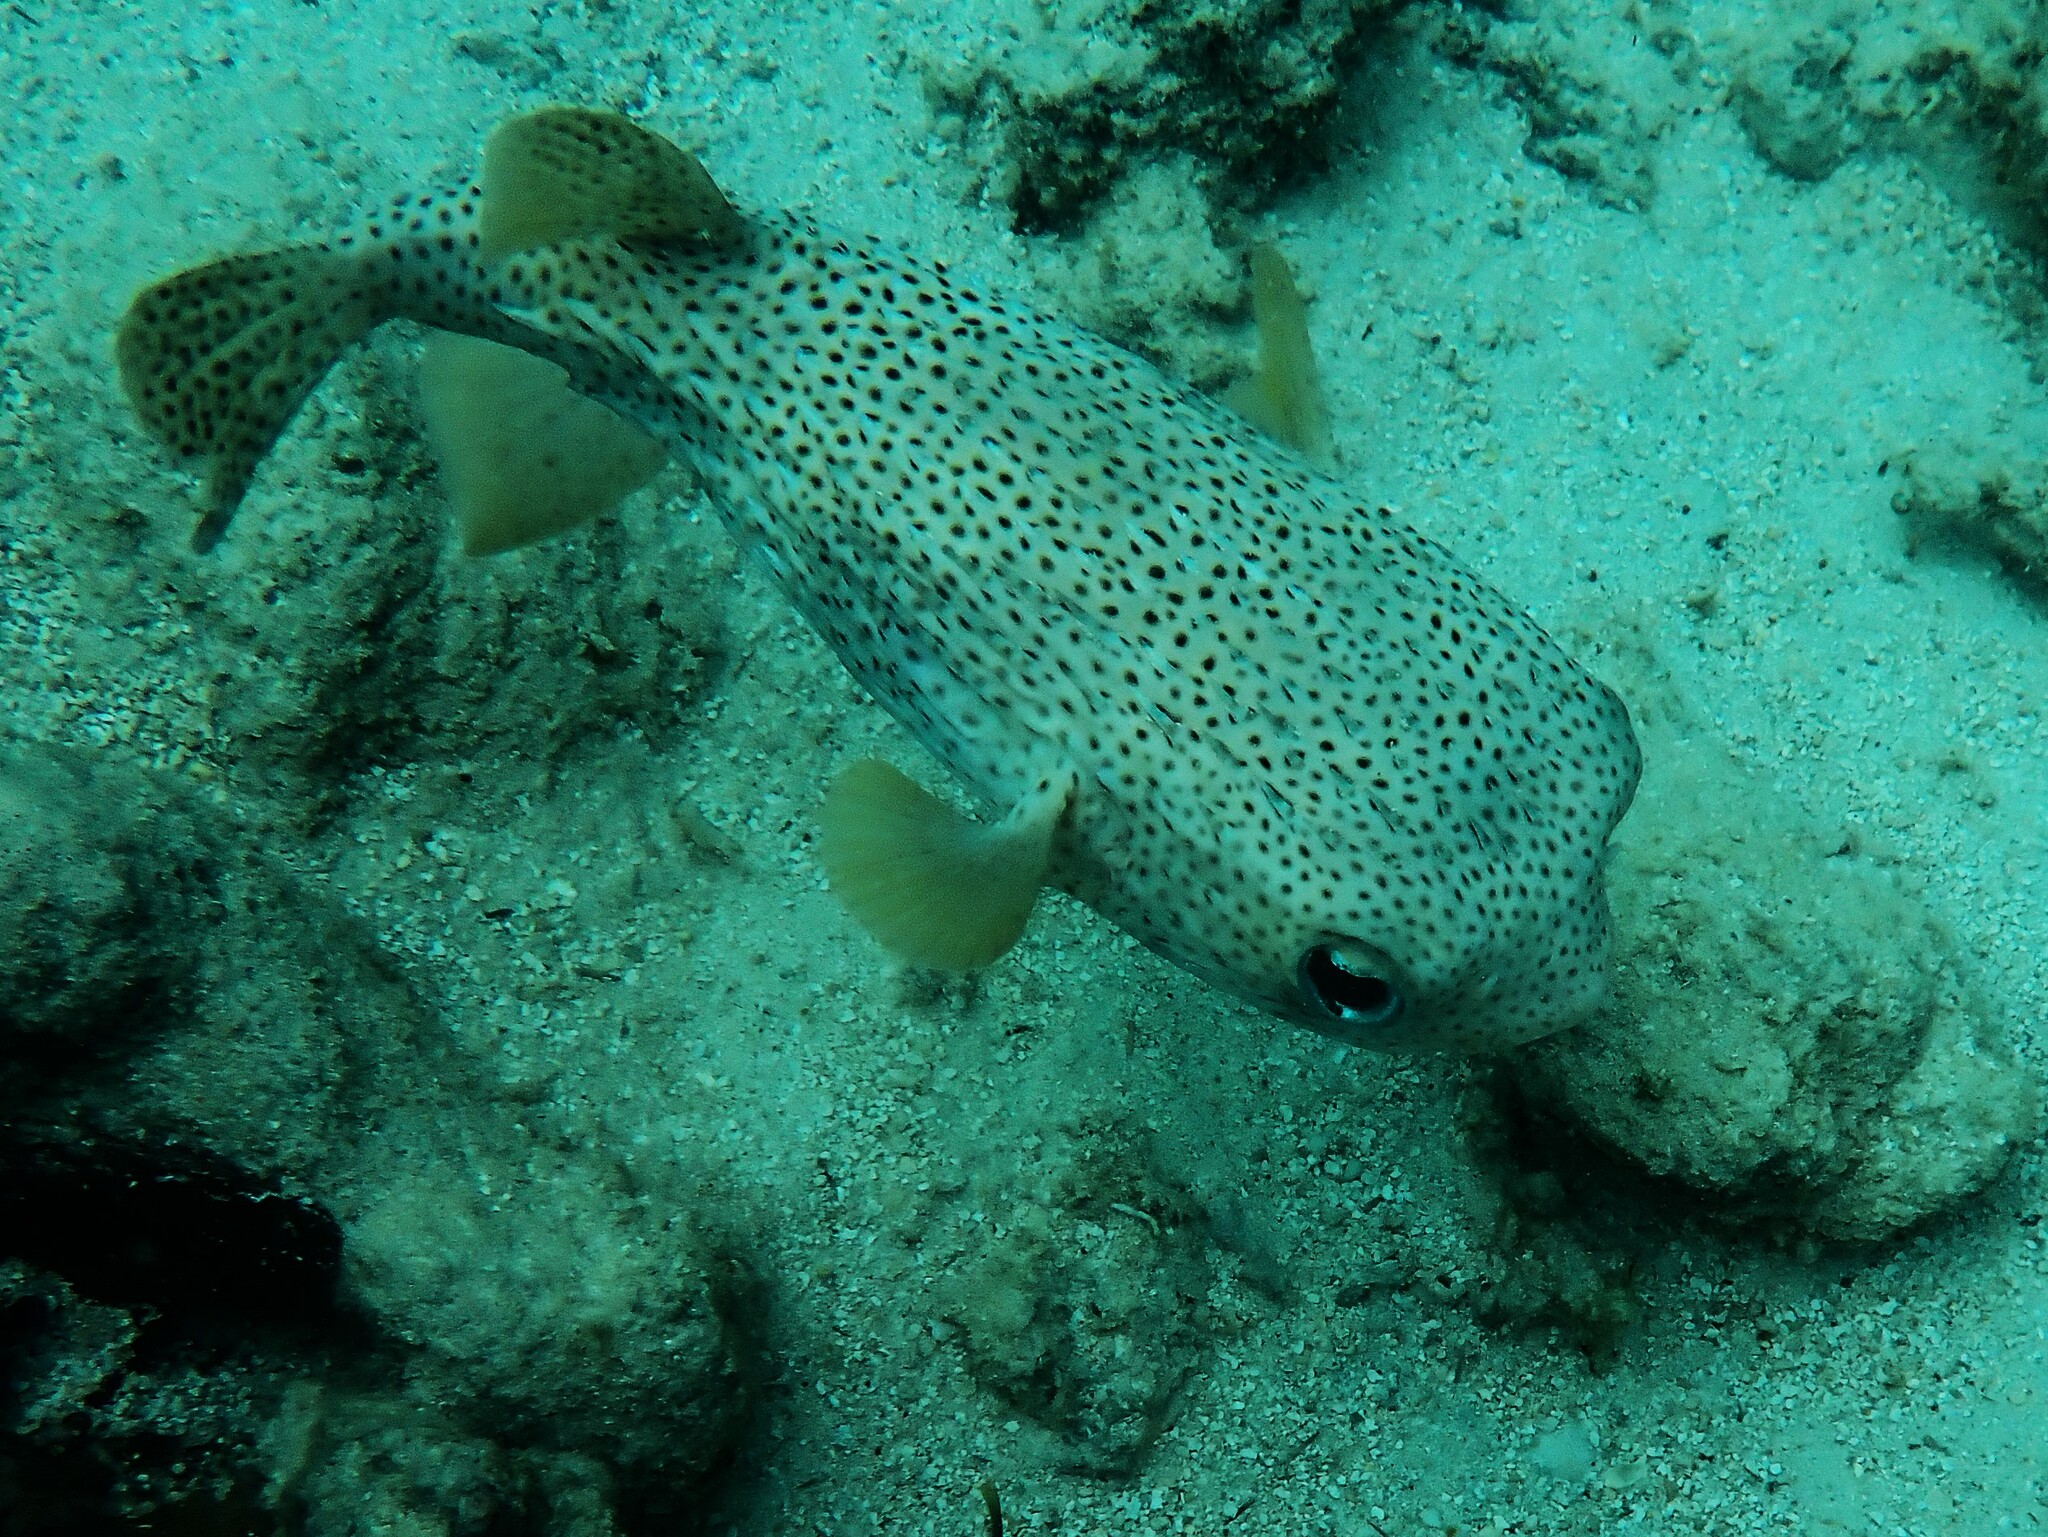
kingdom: Animalia
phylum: Chordata
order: Tetraodontiformes
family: Diodontidae
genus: Diodon
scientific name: Diodon hystrix
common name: Giant porcupinefish
